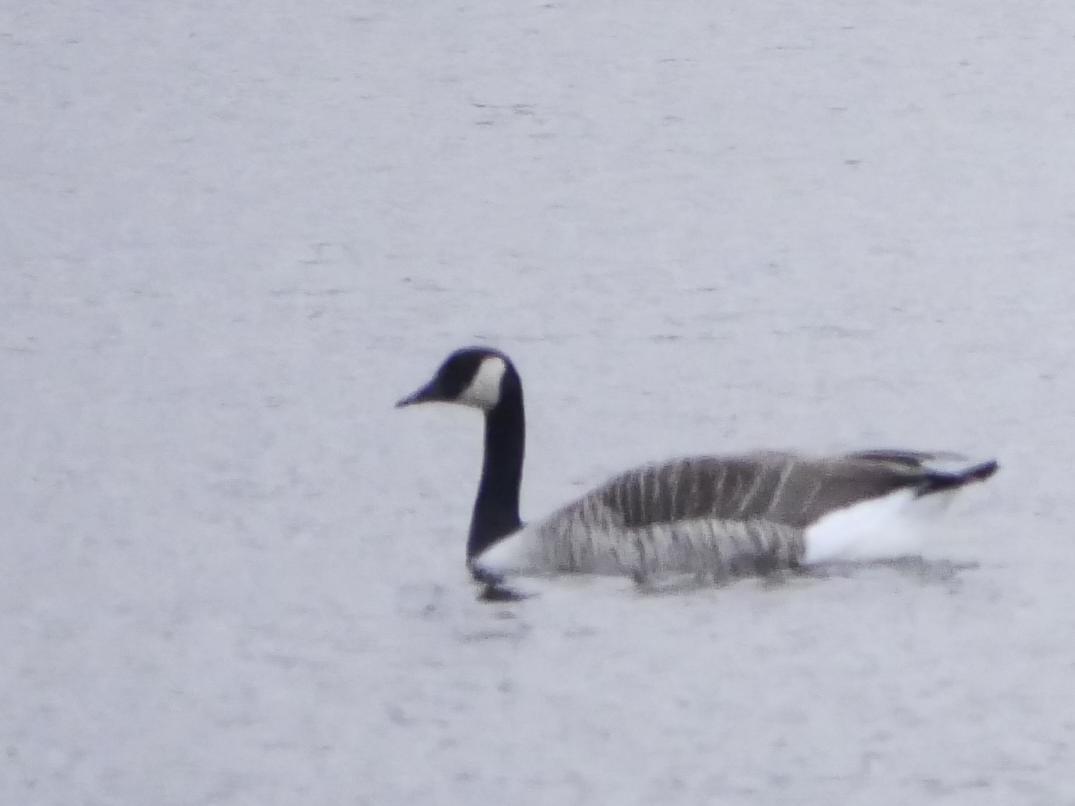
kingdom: Animalia
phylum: Chordata
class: Aves
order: Anseriformes
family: Anatidae
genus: Branta
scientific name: Branta canadensis
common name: Canada goose
